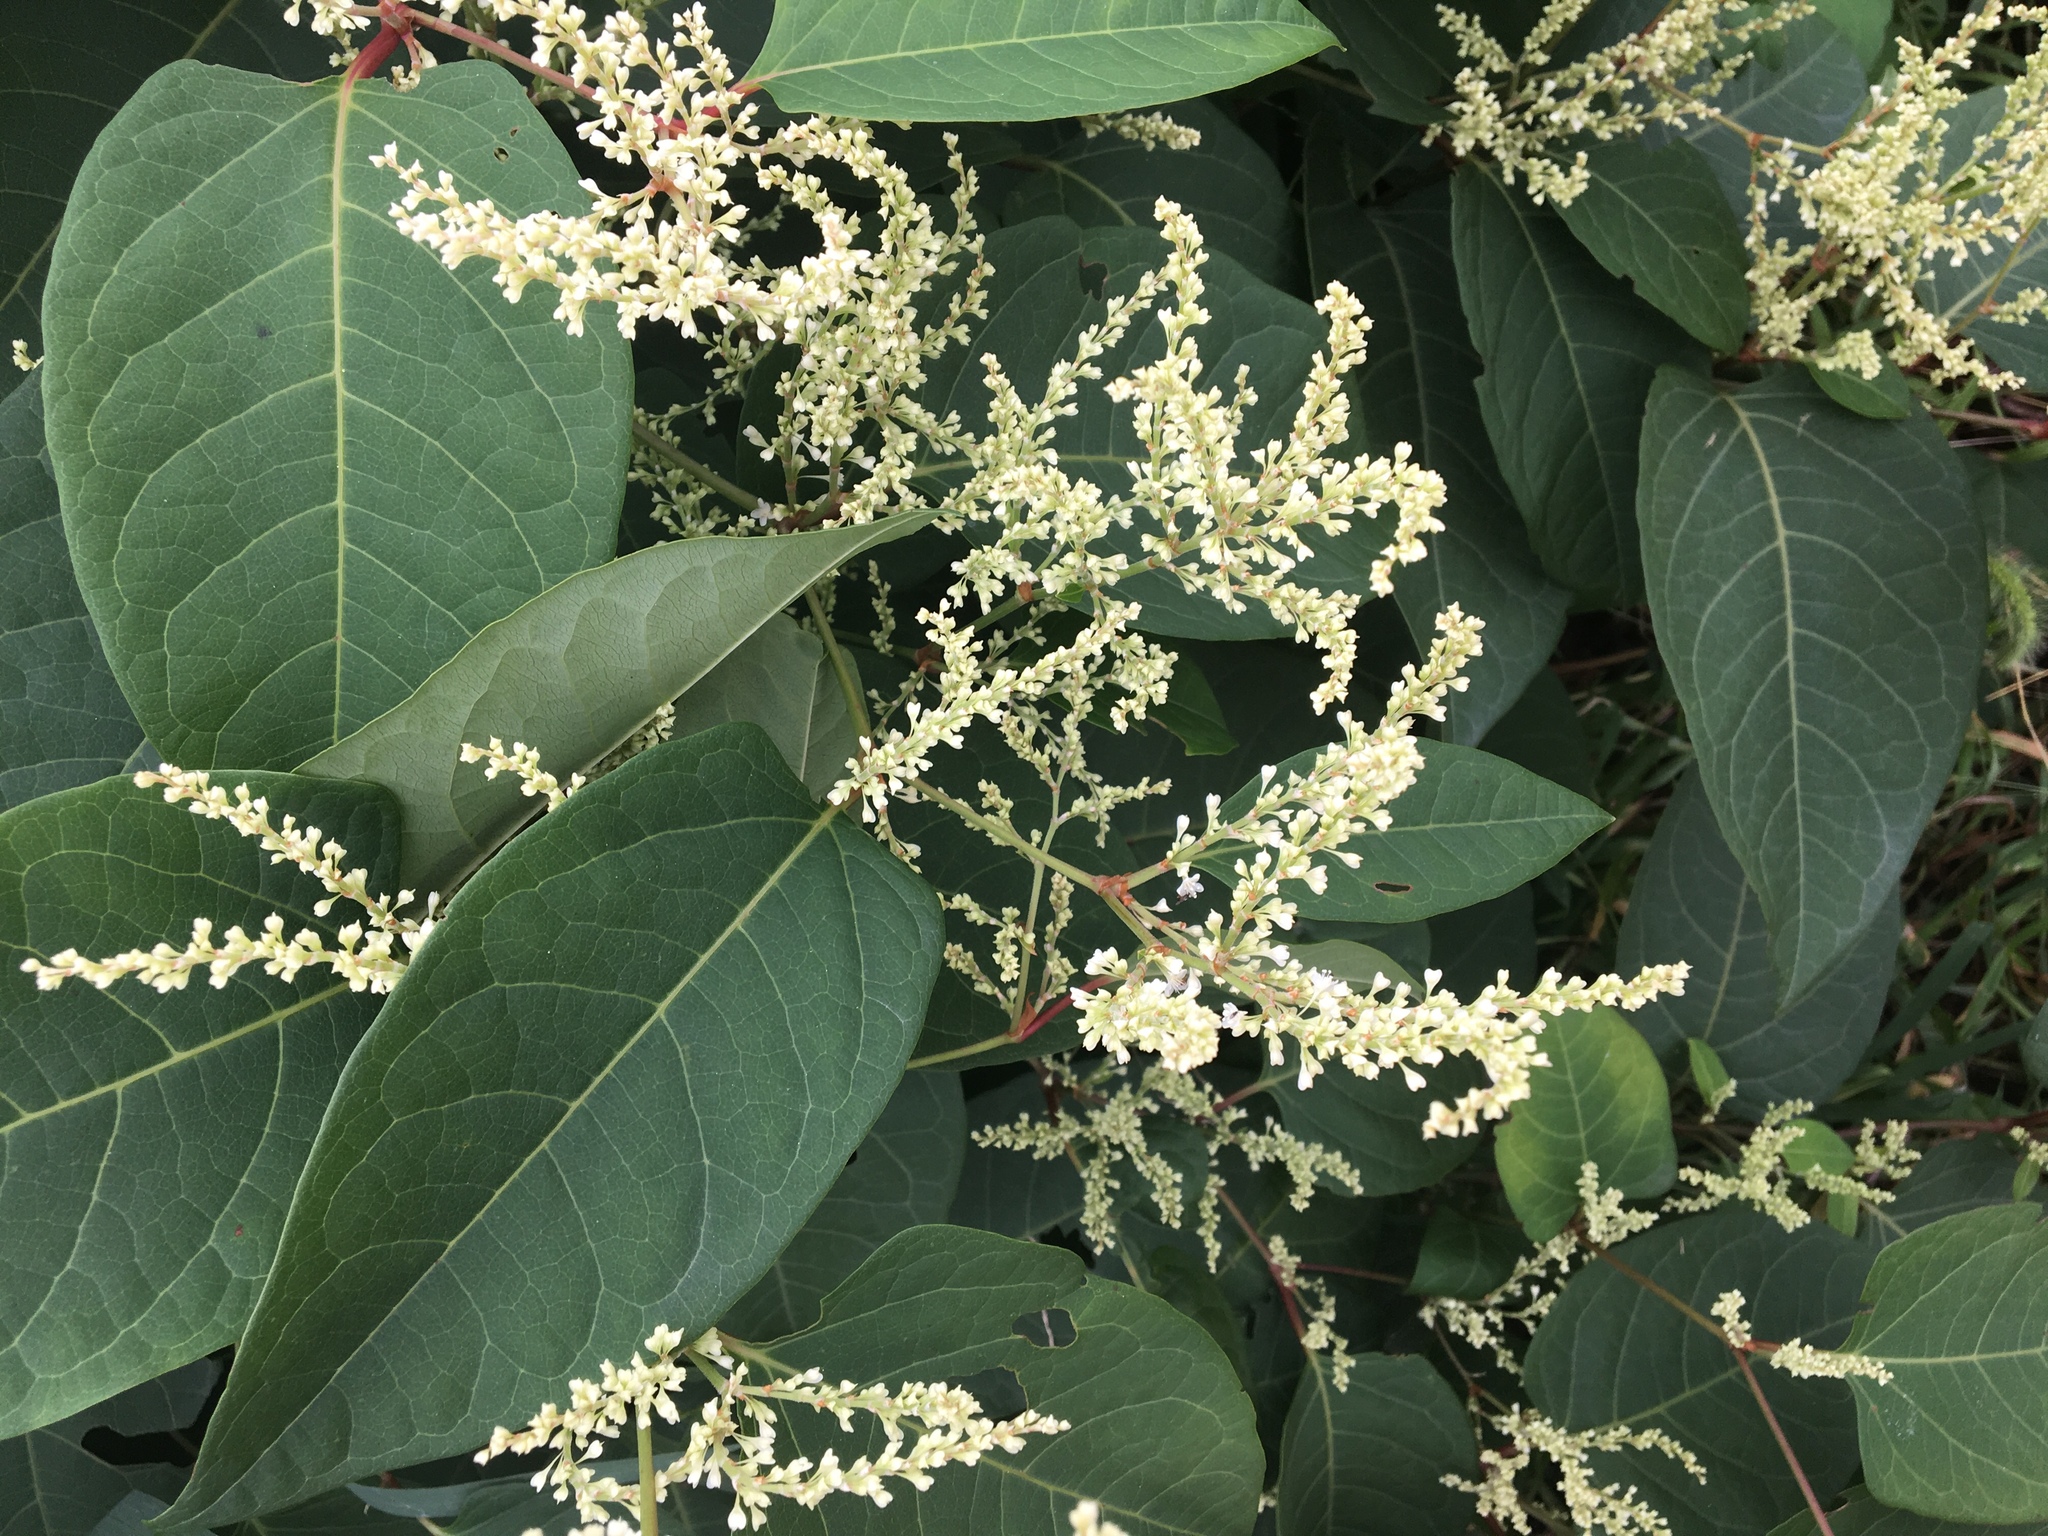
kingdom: Plantae
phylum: Tracheophyta
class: Magnoliopsida
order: Caryophyllales
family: Polygonaceae
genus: Reynoutria
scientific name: Reynoutria japonica
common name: Japanese knotweed
